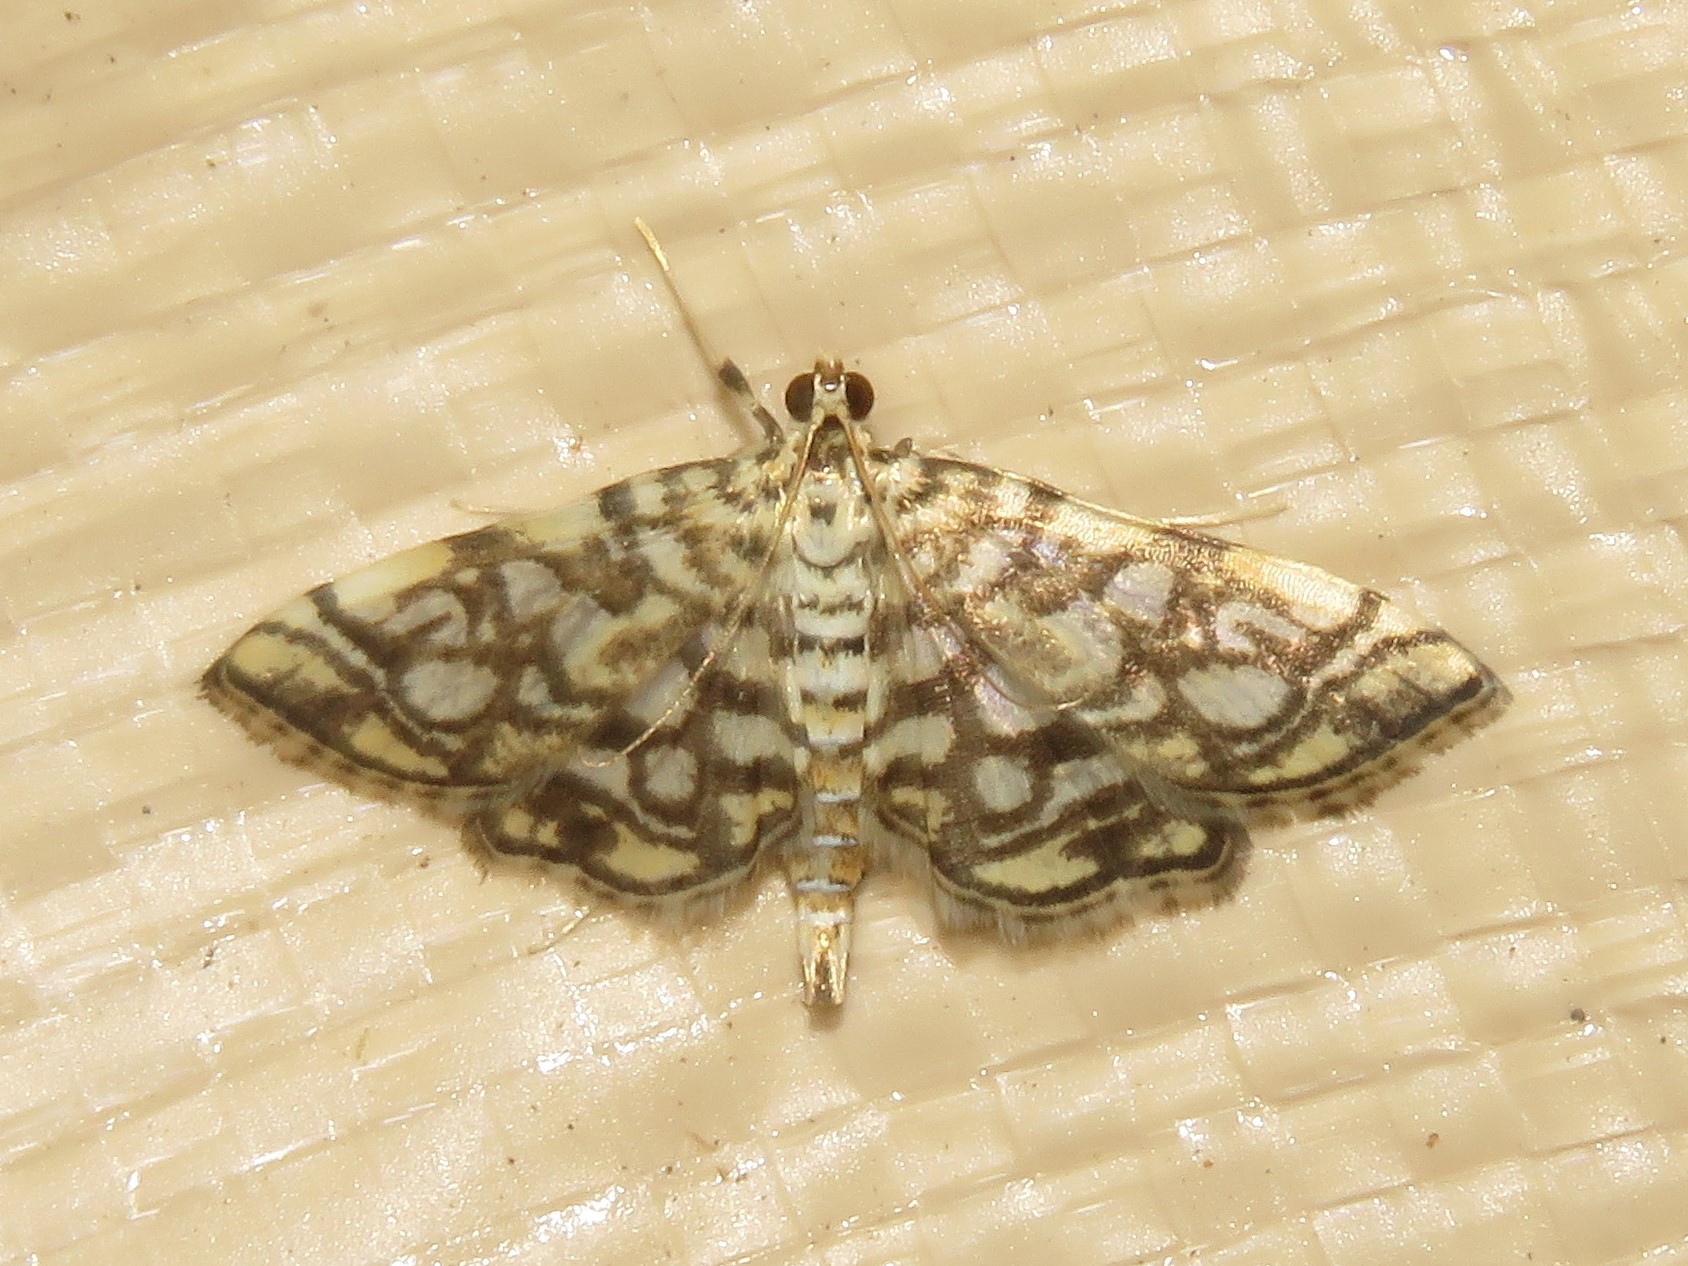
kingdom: Animalia
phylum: Arthropoda
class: Insecta
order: Lepidoptera
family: Crambidae
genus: Lygropia
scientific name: Lygropia rivulalis
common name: Bog lygropia moth
